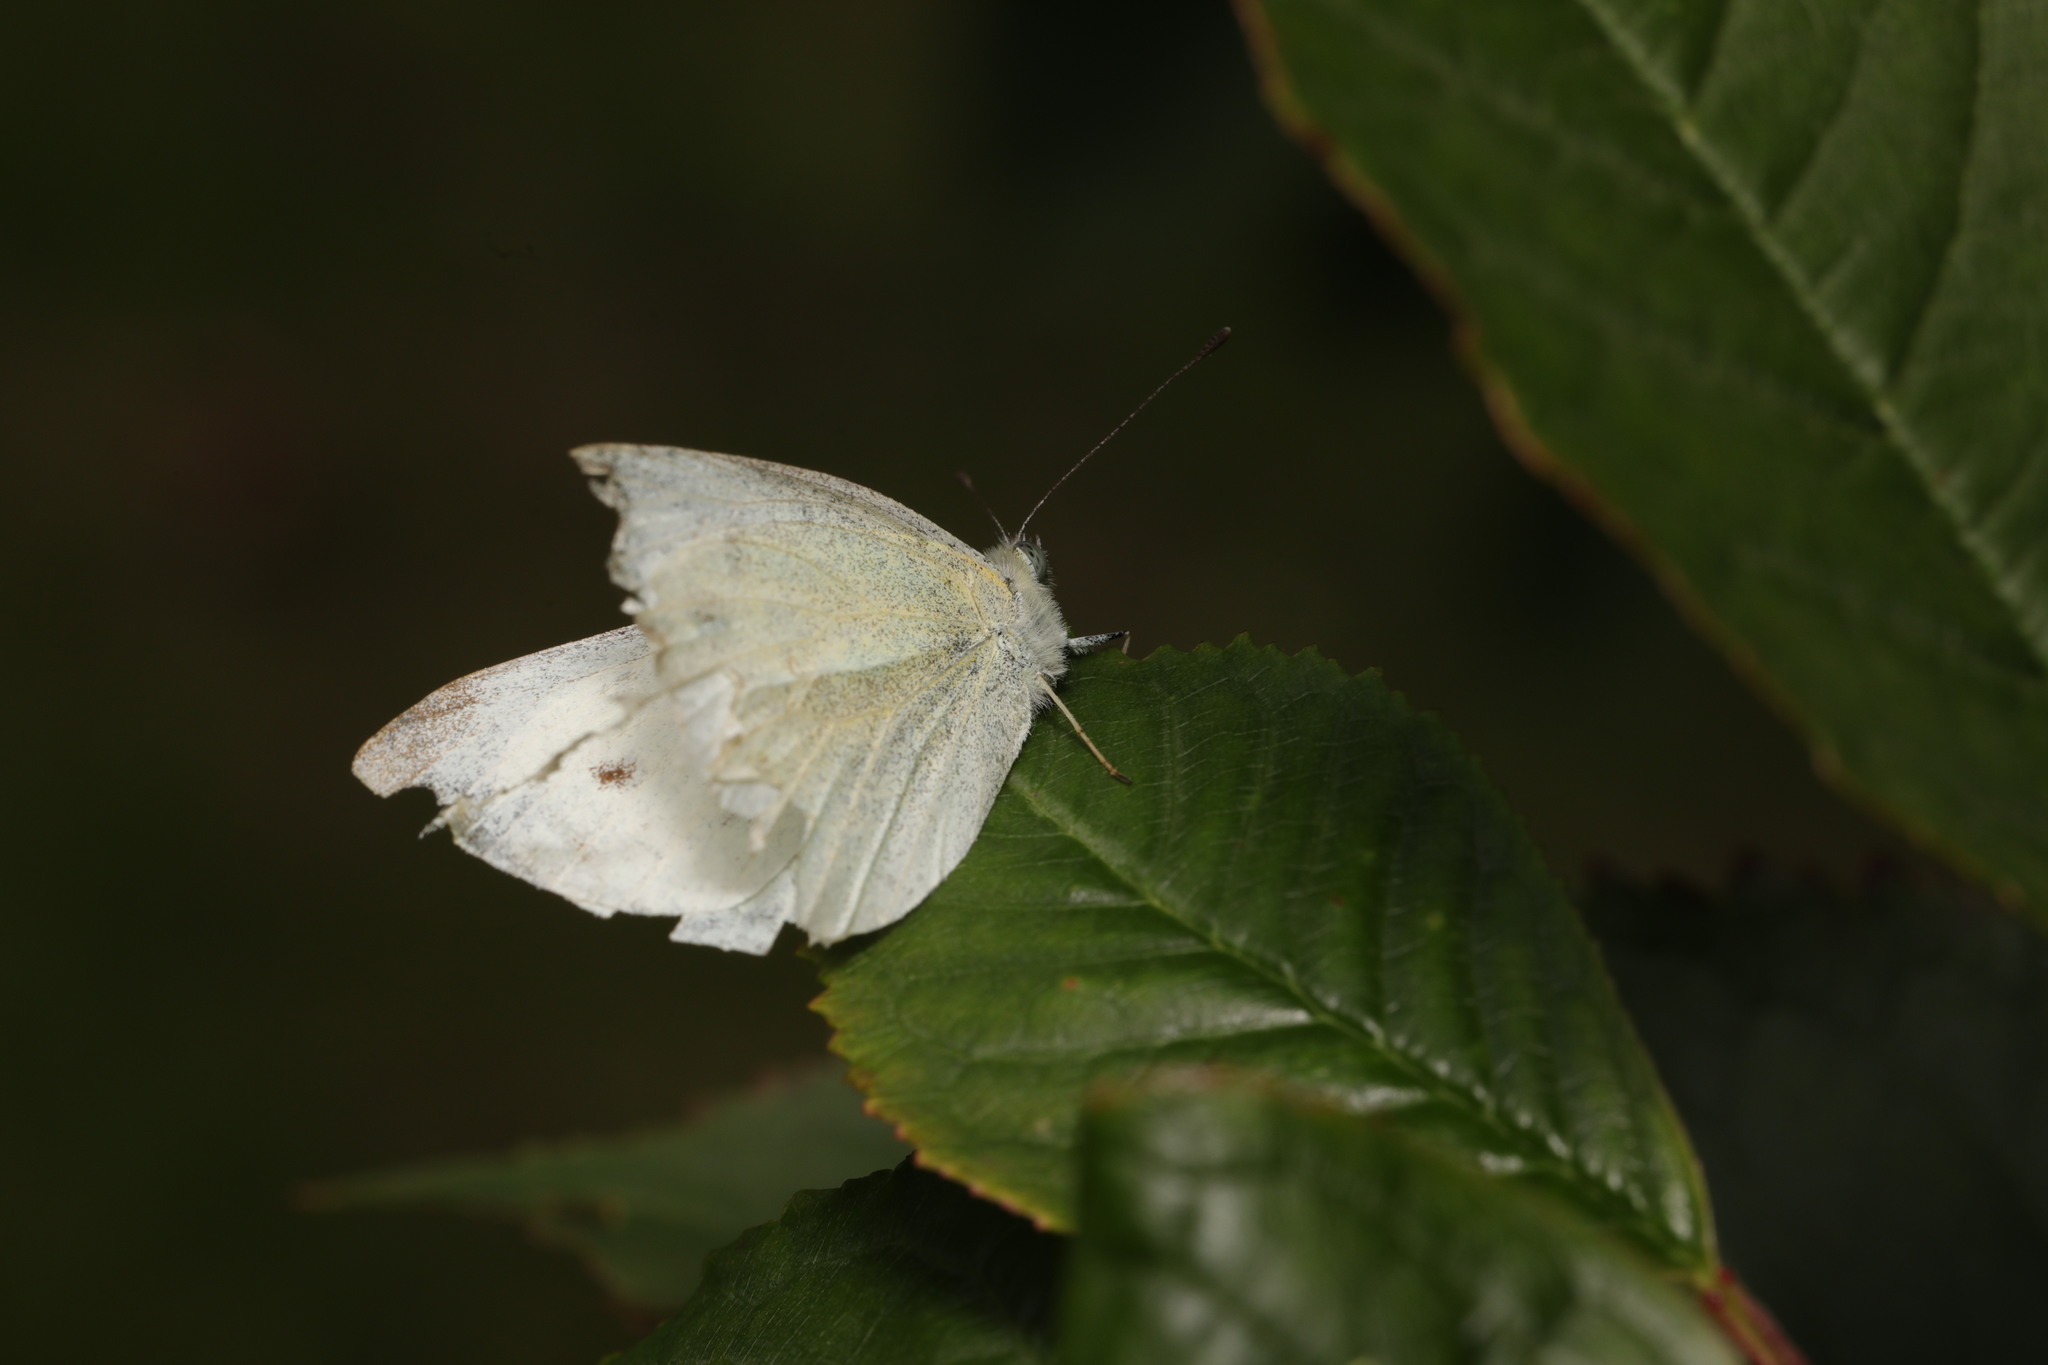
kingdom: Animalia
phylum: Arthropoda
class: Insecta
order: Lepidoptera
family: Pieridae
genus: Pieris
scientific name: Pieris rapae
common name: Small white
